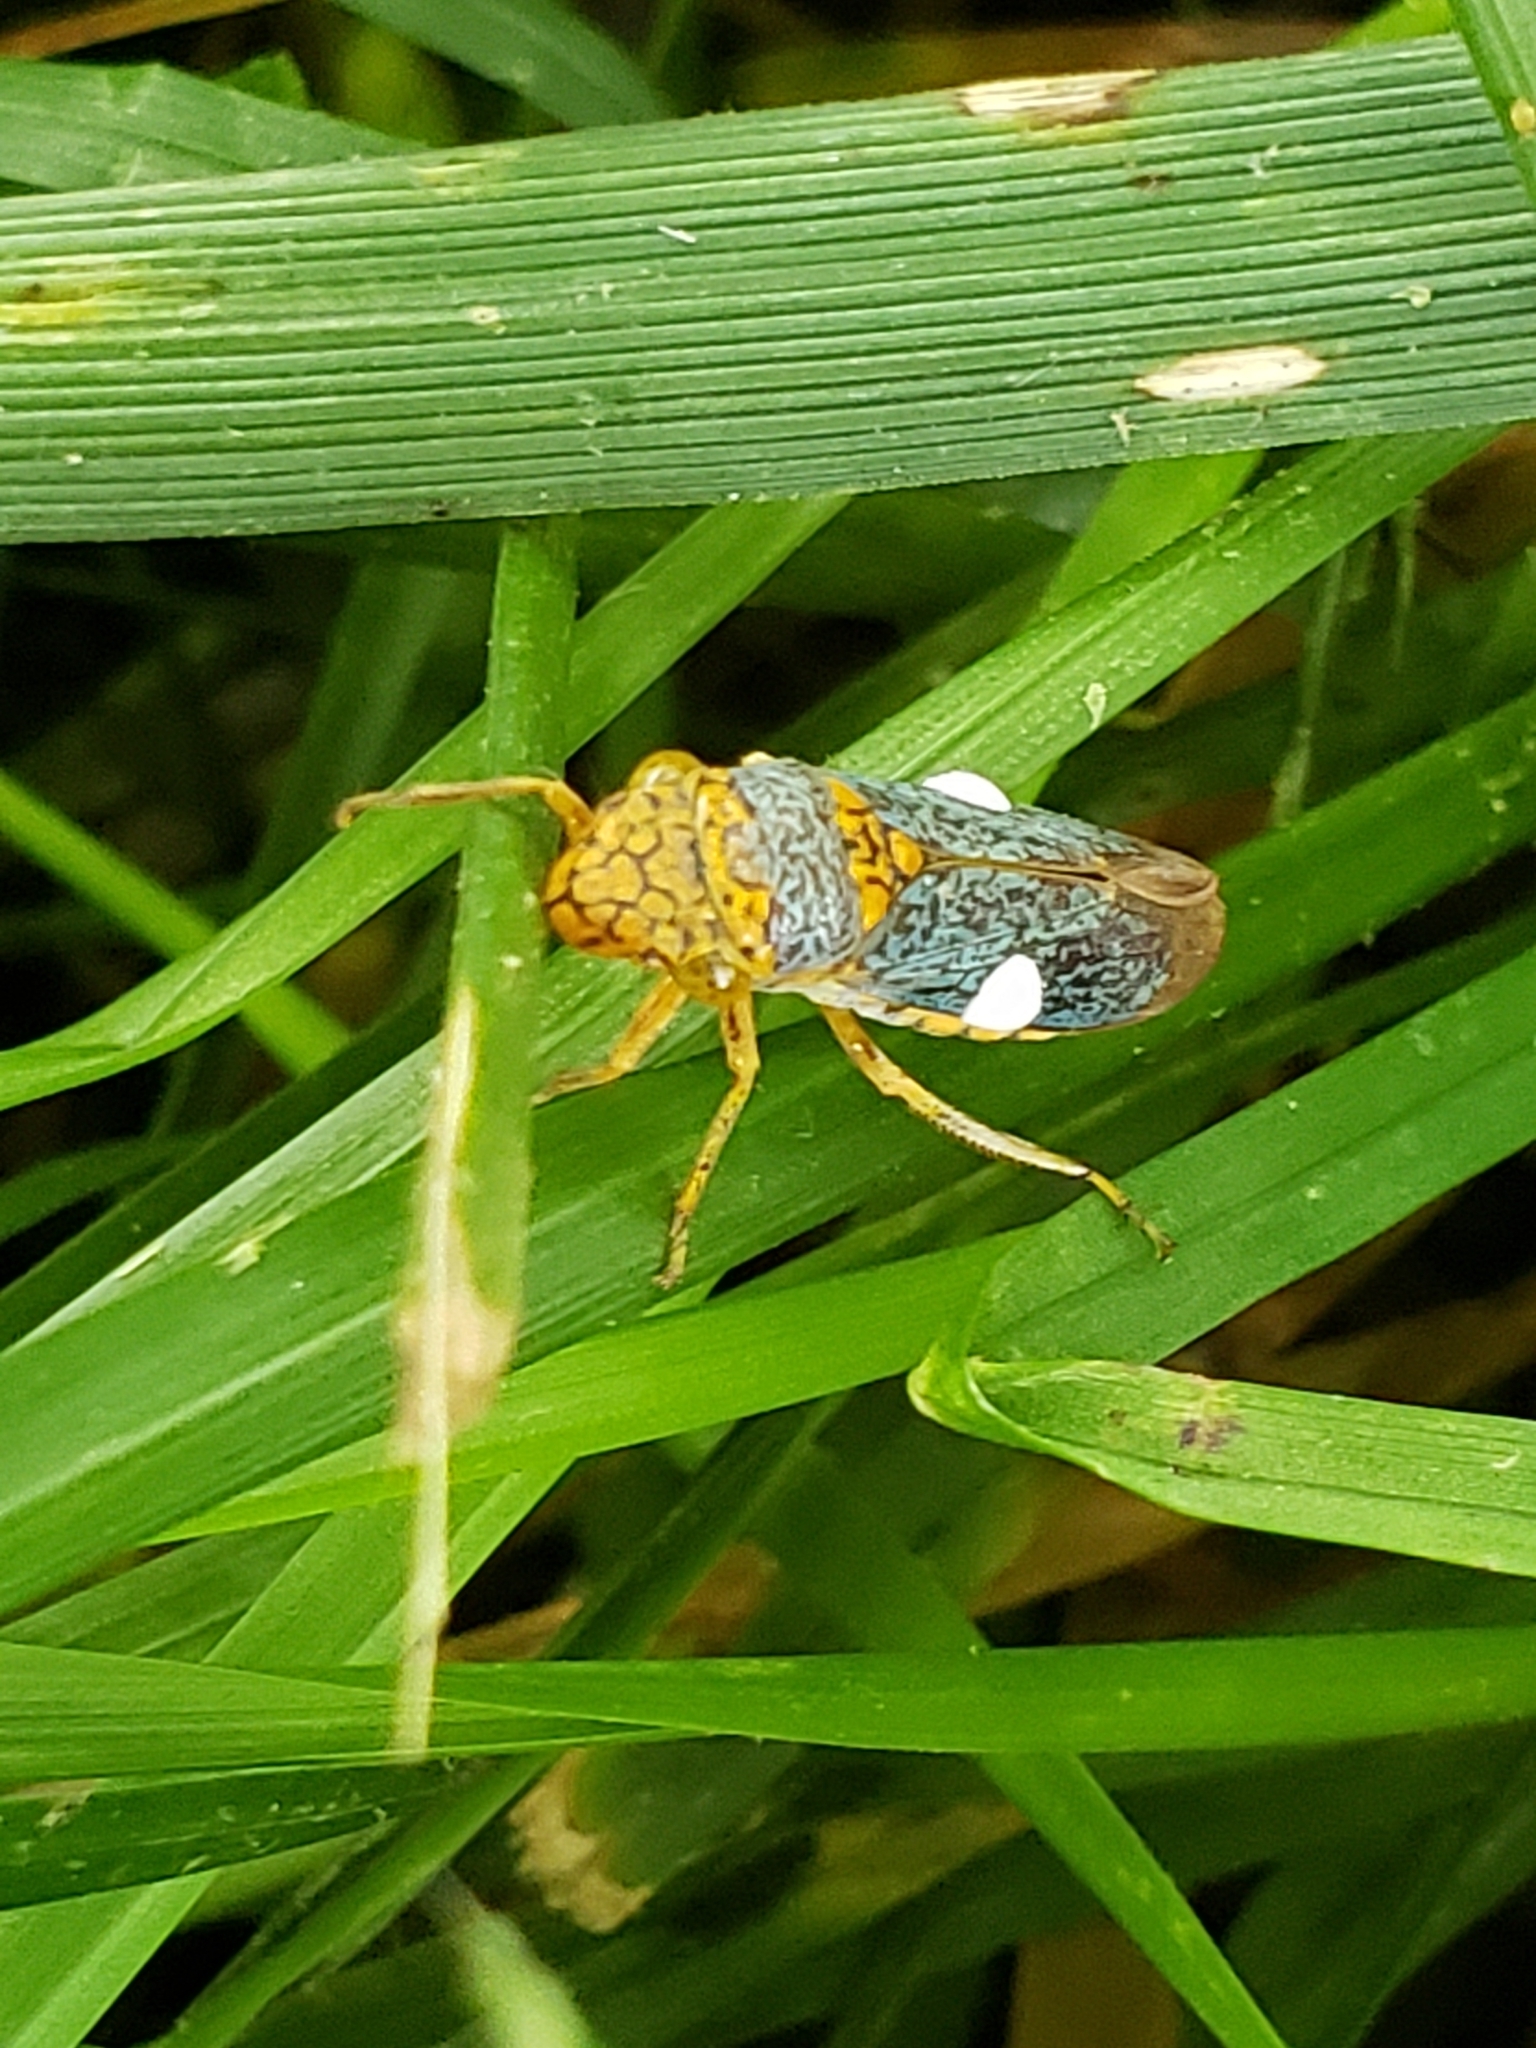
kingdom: Animalia
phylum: Arthropoda
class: Insecta
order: Hemiptera
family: Cicadellidae
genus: Oncometopia
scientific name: Oncometopia orbona
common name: Broad-headed sharpshooter
